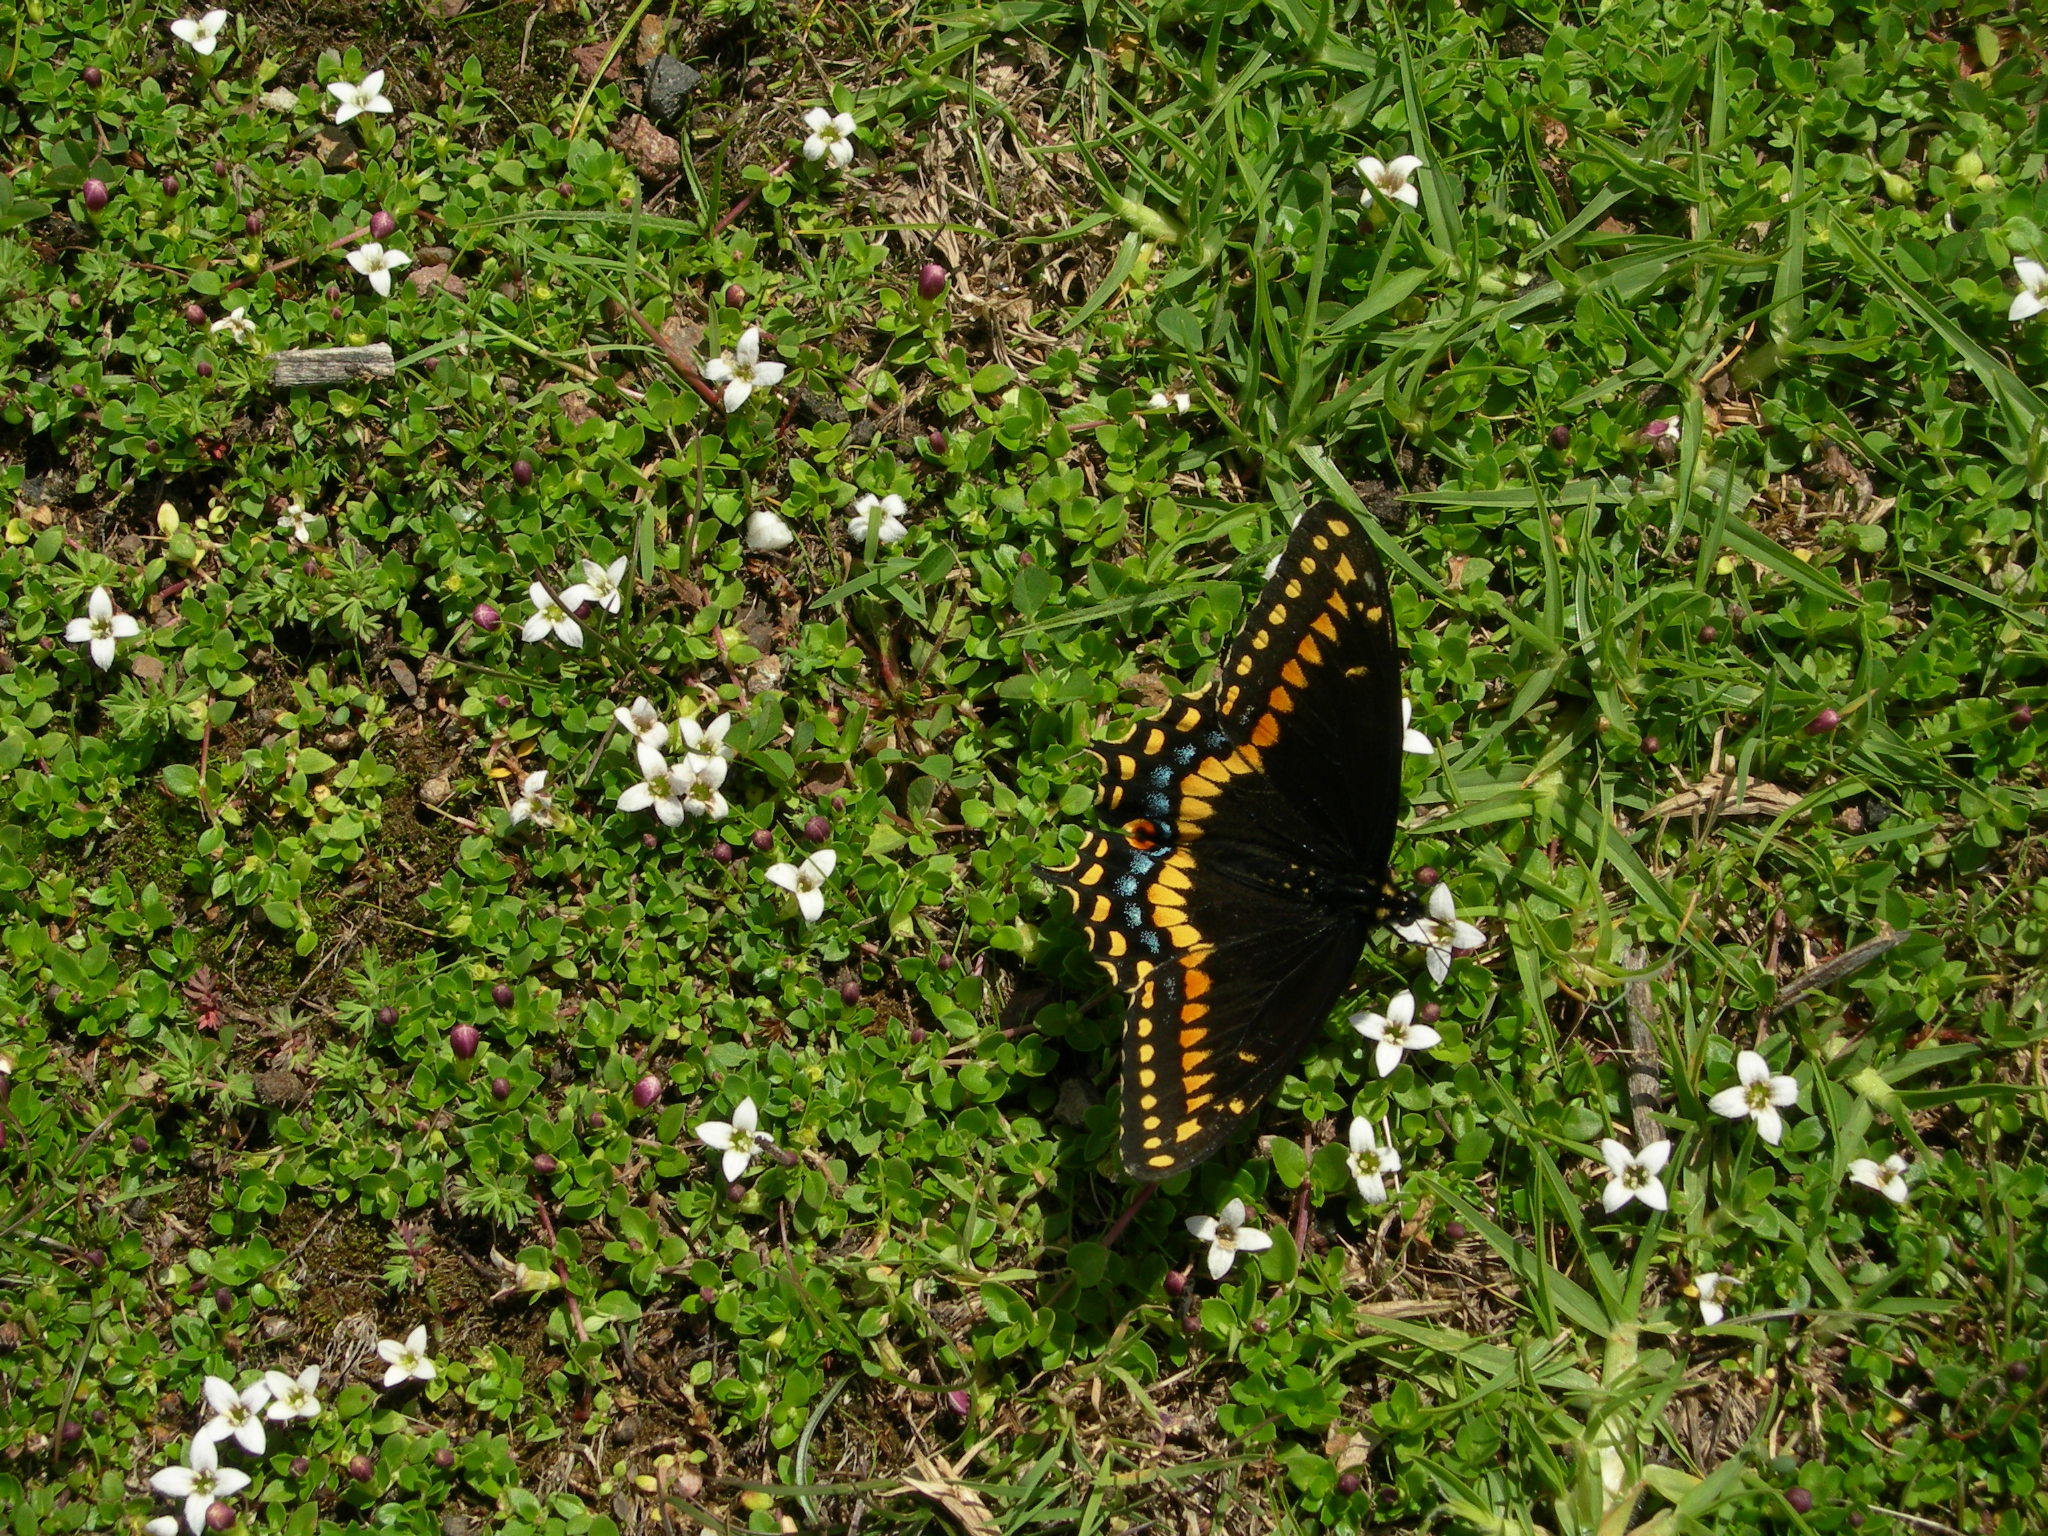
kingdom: Animalia
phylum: Arthropoda
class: Insecta
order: Lepidoptera
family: Papilionidae
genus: Papilio
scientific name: Papilio polyxenes
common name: Black swallowtail
